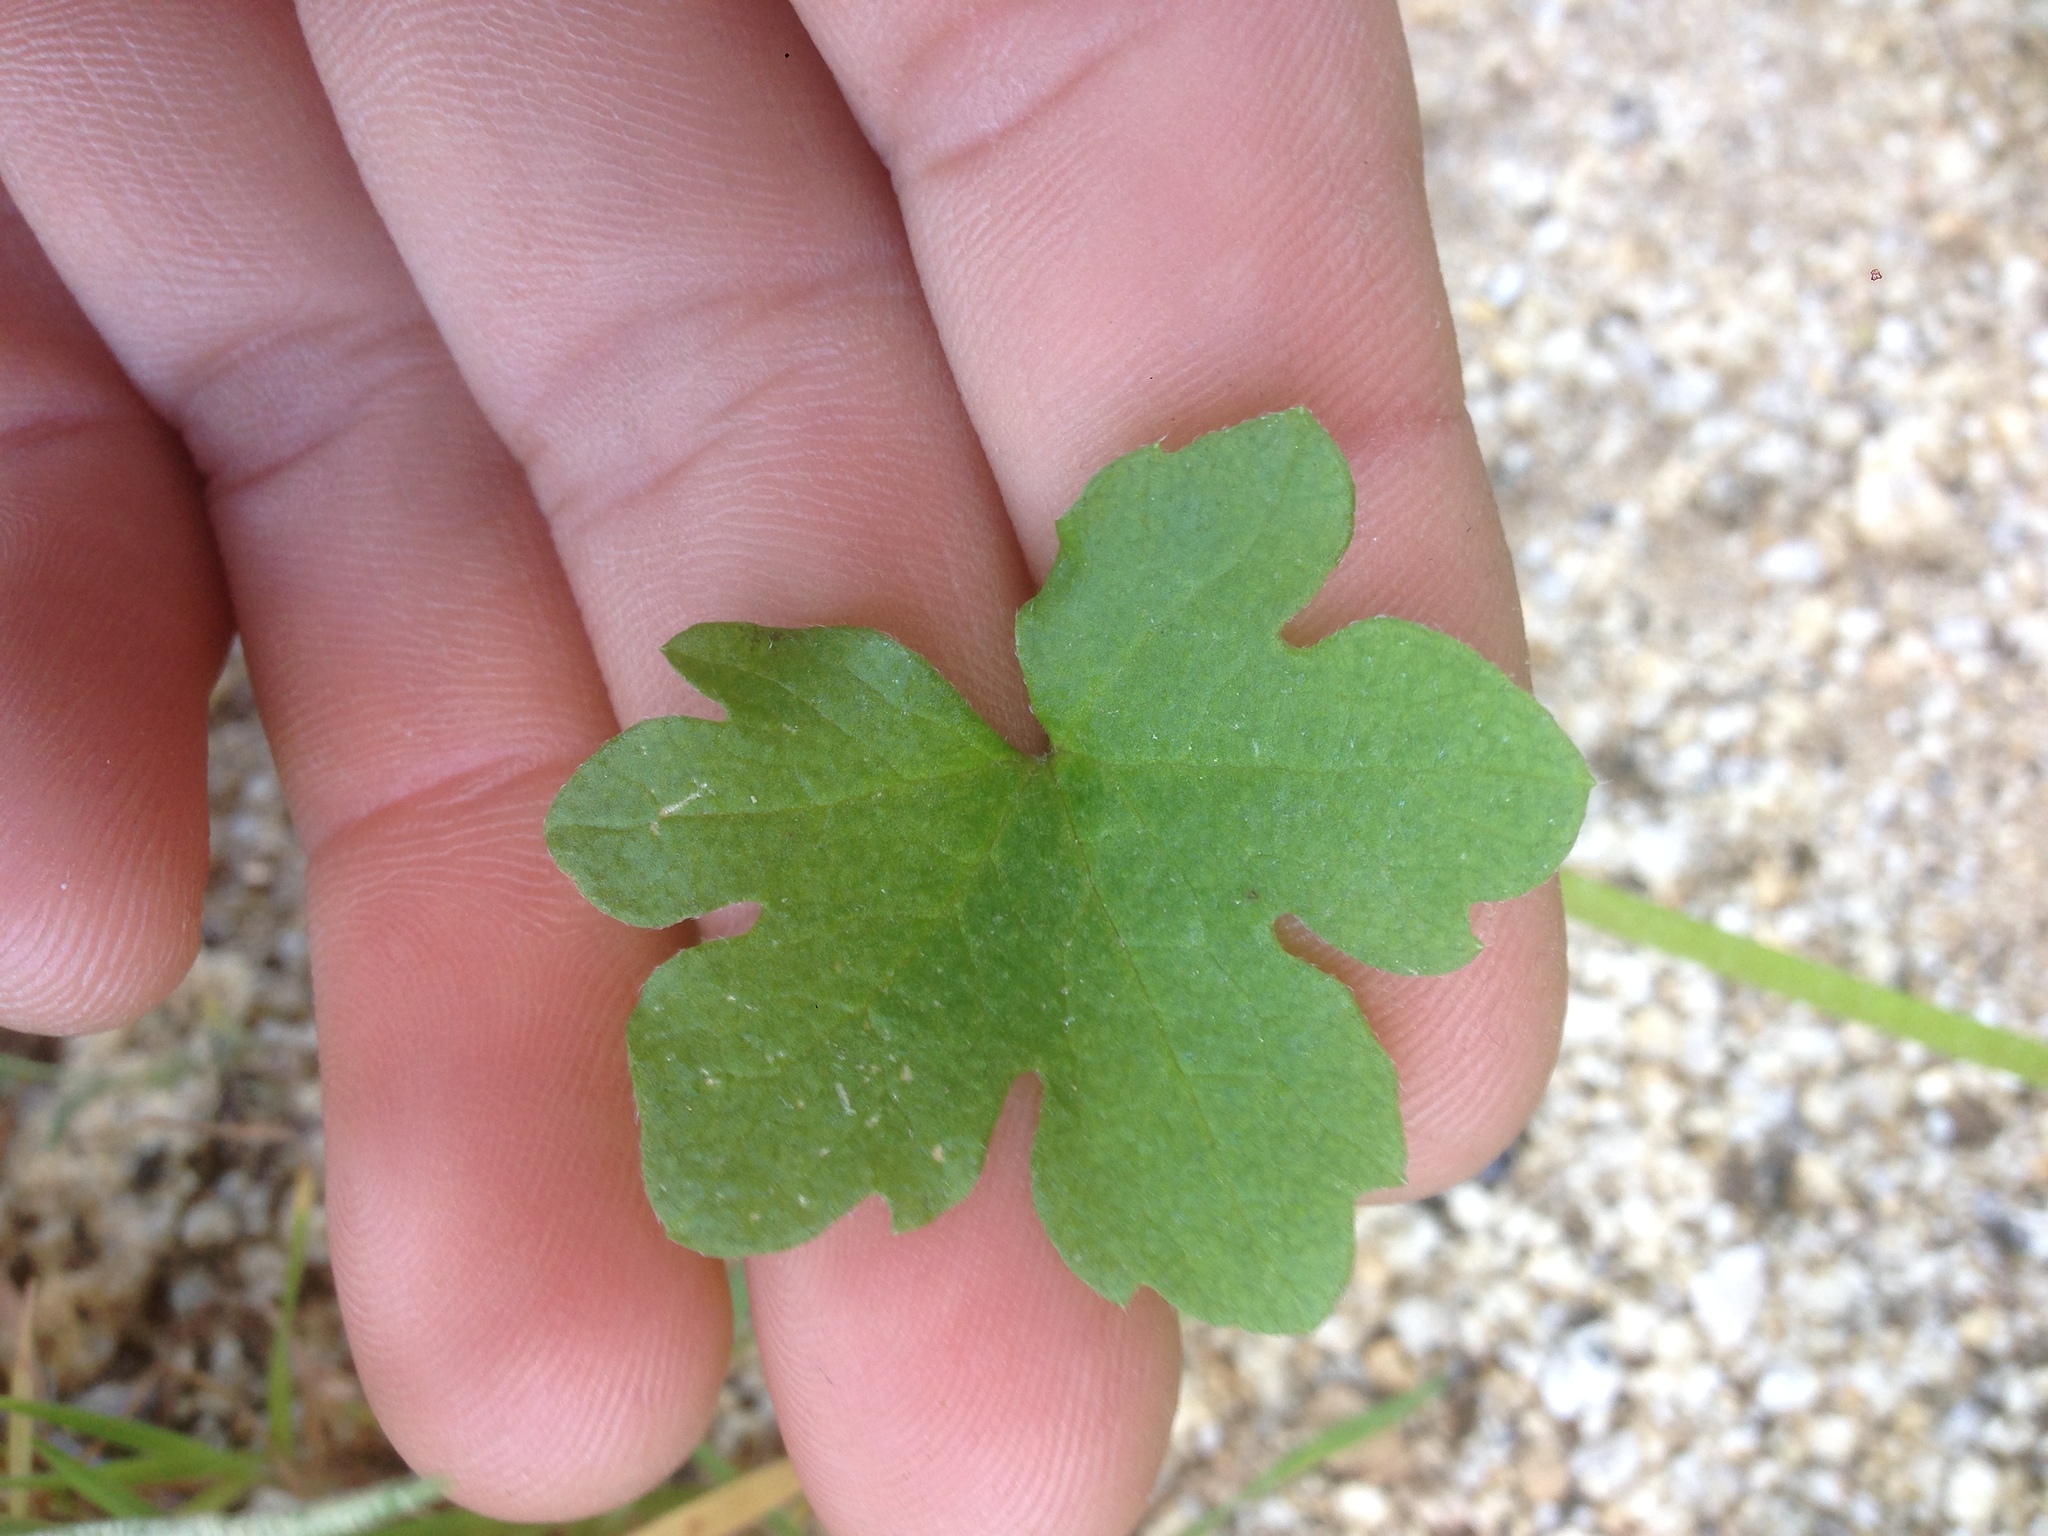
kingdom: Plantae
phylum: Tracheophyta
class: Magnoliopsida
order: Apiales
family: Apiaceae
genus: Bowlesia
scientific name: Bowlesia incana
